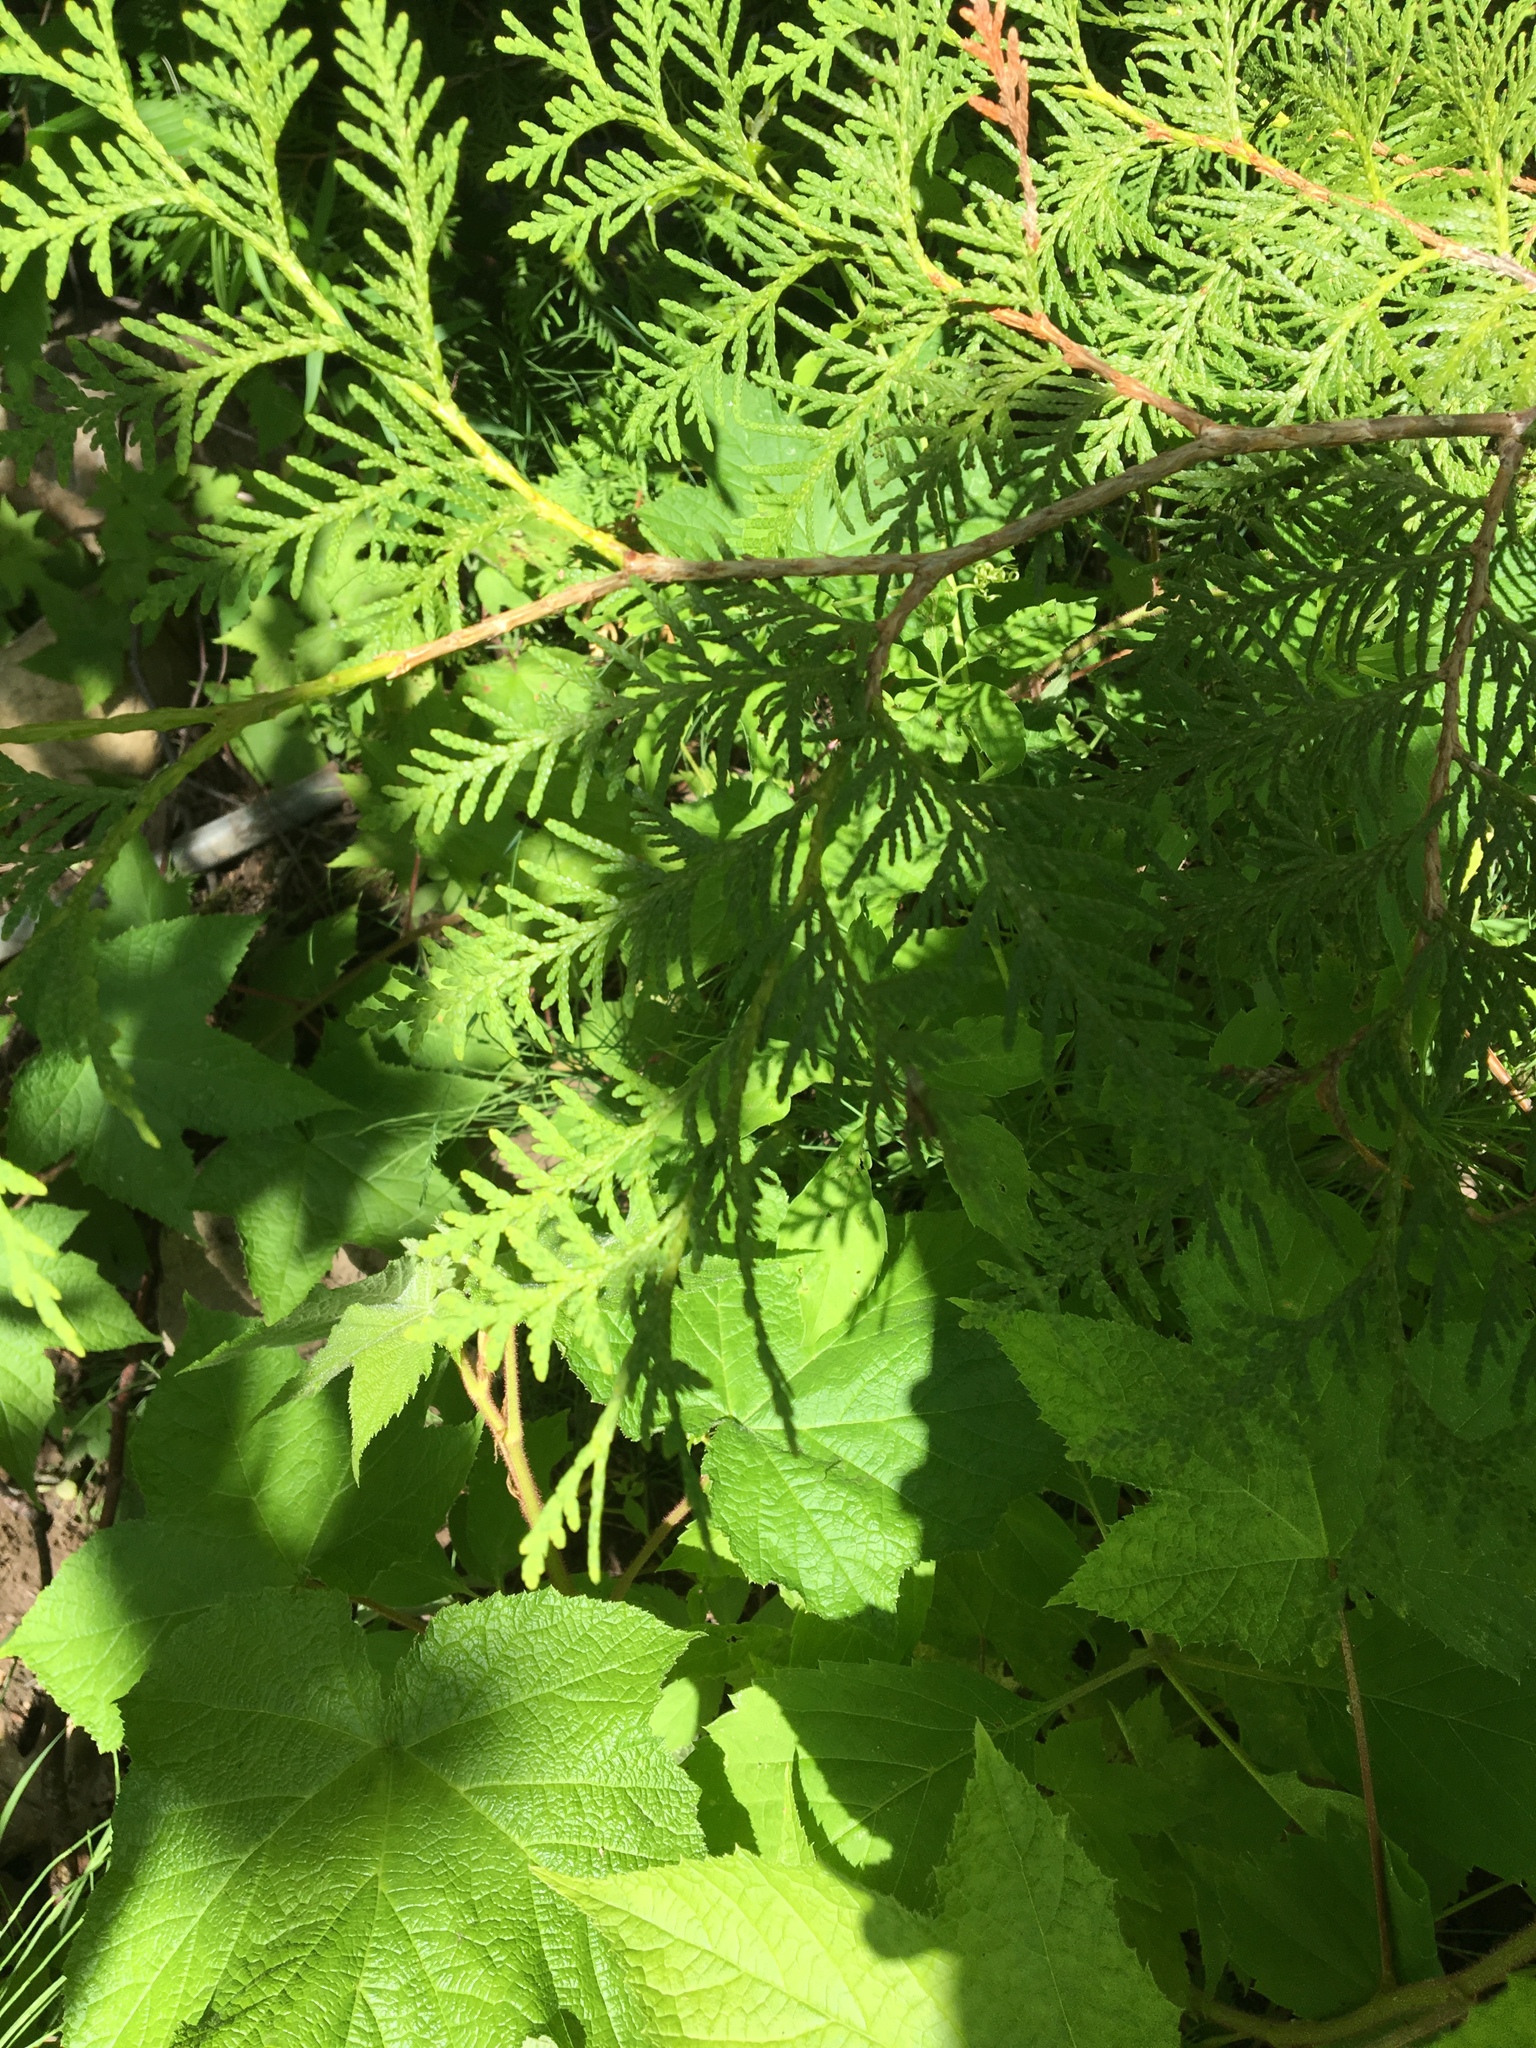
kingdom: Plantae
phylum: Tracheophyta
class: Pinopsida
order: Pinales
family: Cupressaceae
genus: Thuja
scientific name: Thuja occidentalis
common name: Northern white-cedar
